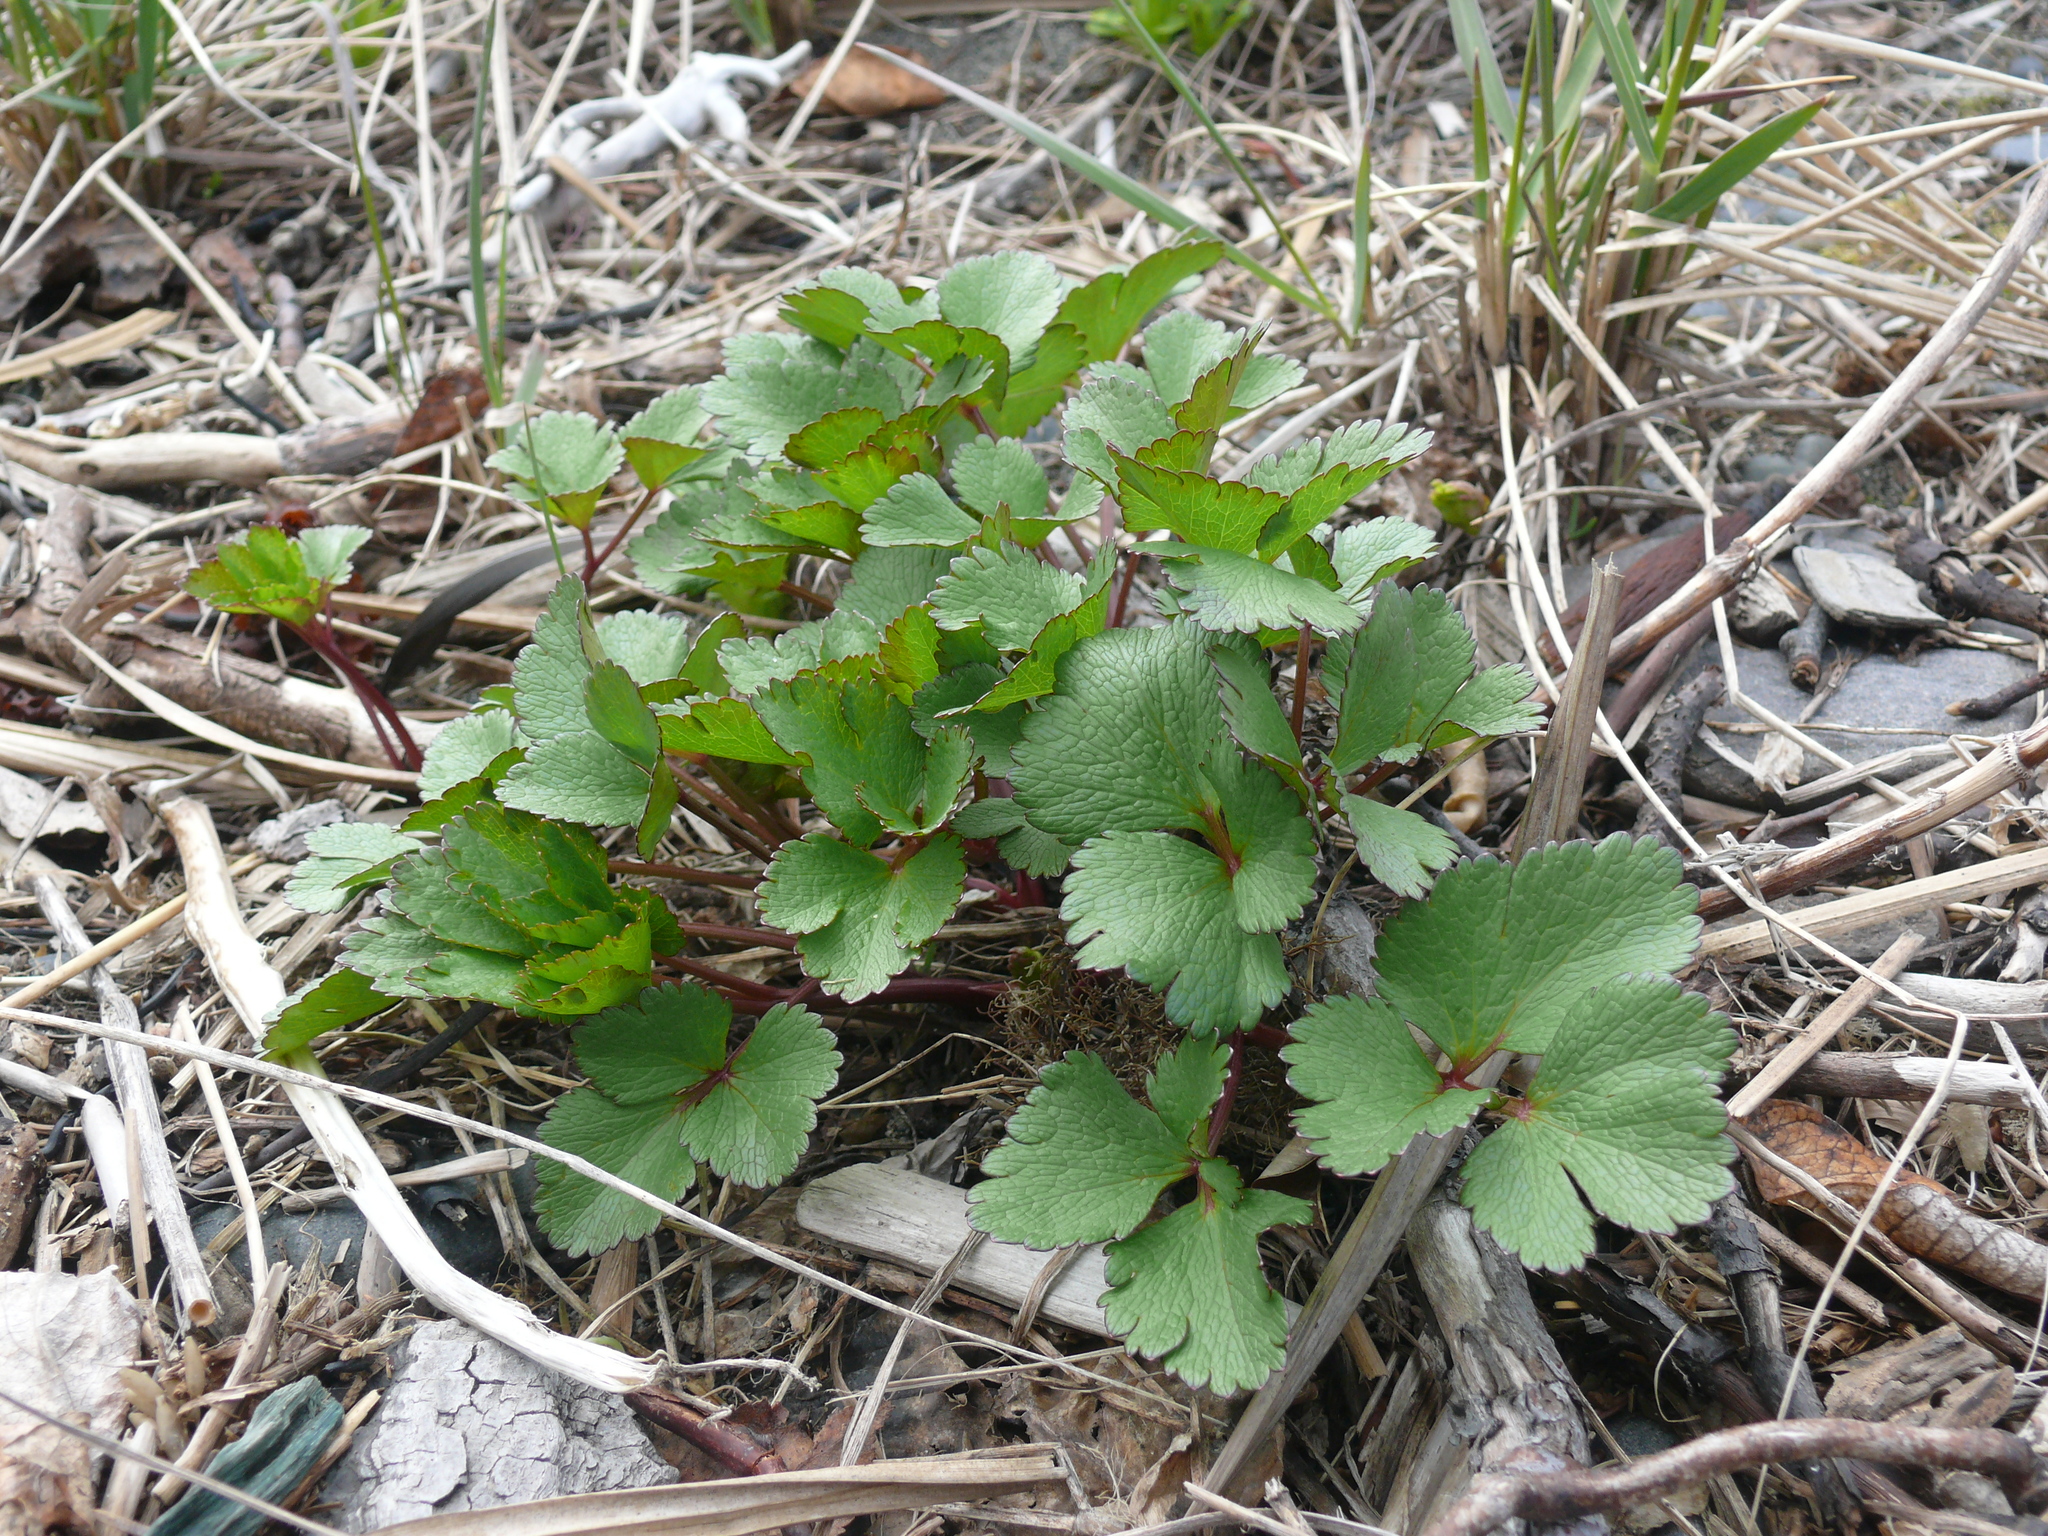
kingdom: Plantae
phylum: Tracheophyta
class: Magnoliopsida
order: Apiales
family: Apiaceae
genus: Ligusticum
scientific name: Ligusticum scothicum
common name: Beach lovage
